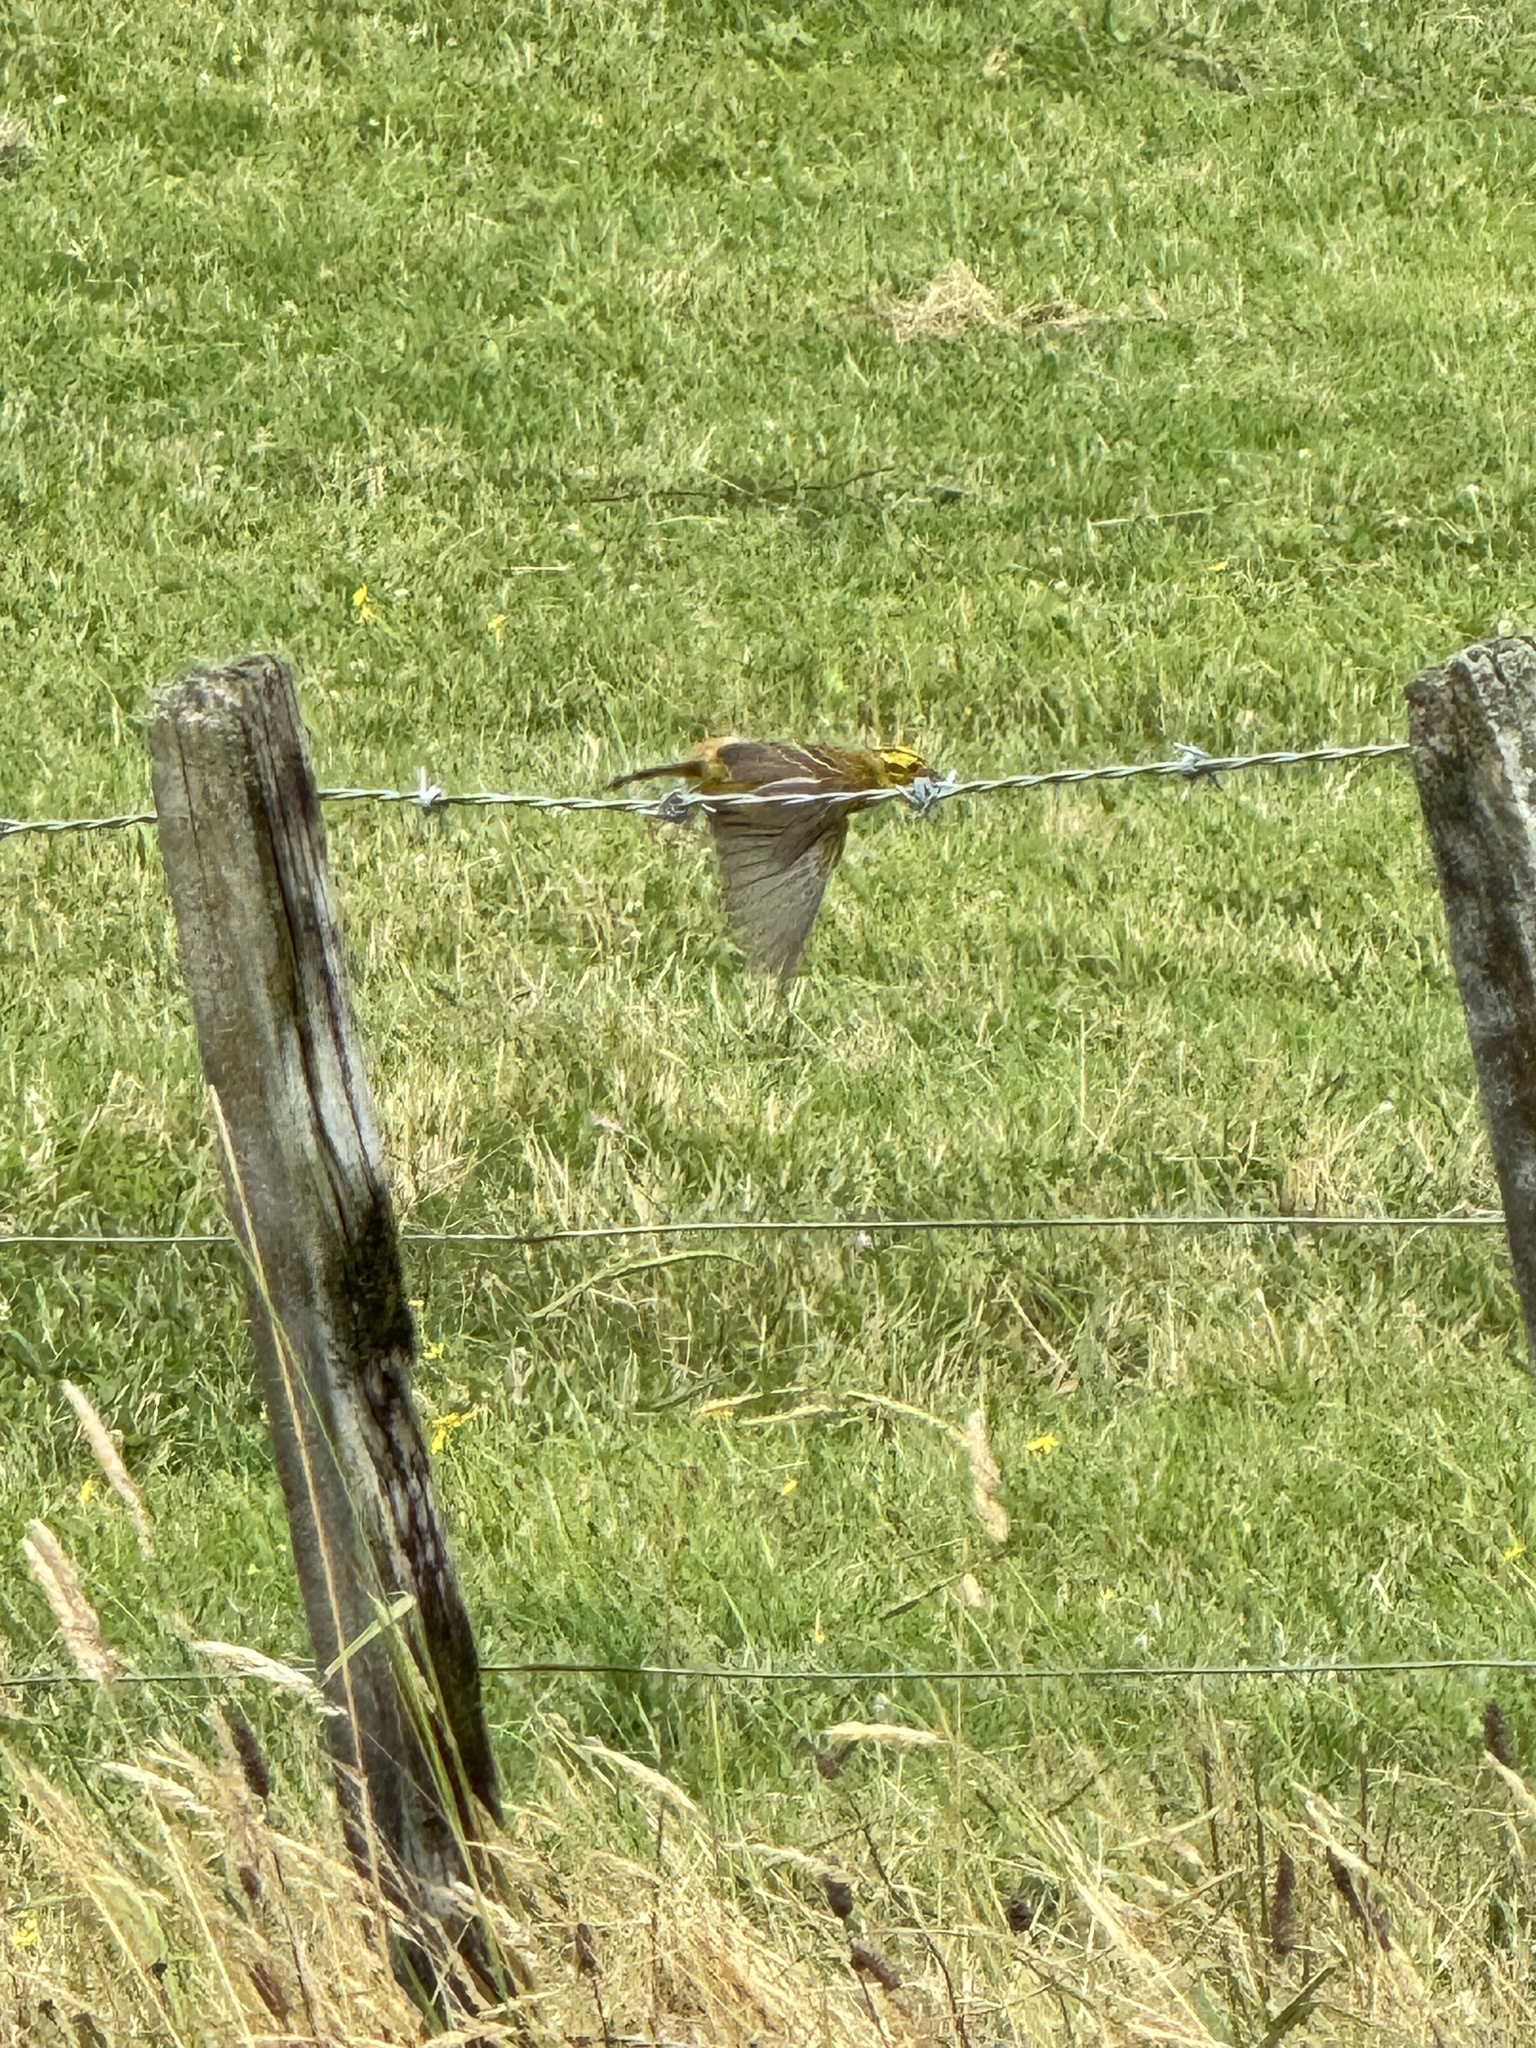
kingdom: Animalia
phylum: Chordata
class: Aves
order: Passeriformes
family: Emberizidae
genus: Emberiza
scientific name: Emberiza citrinella
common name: Yellowhammer
